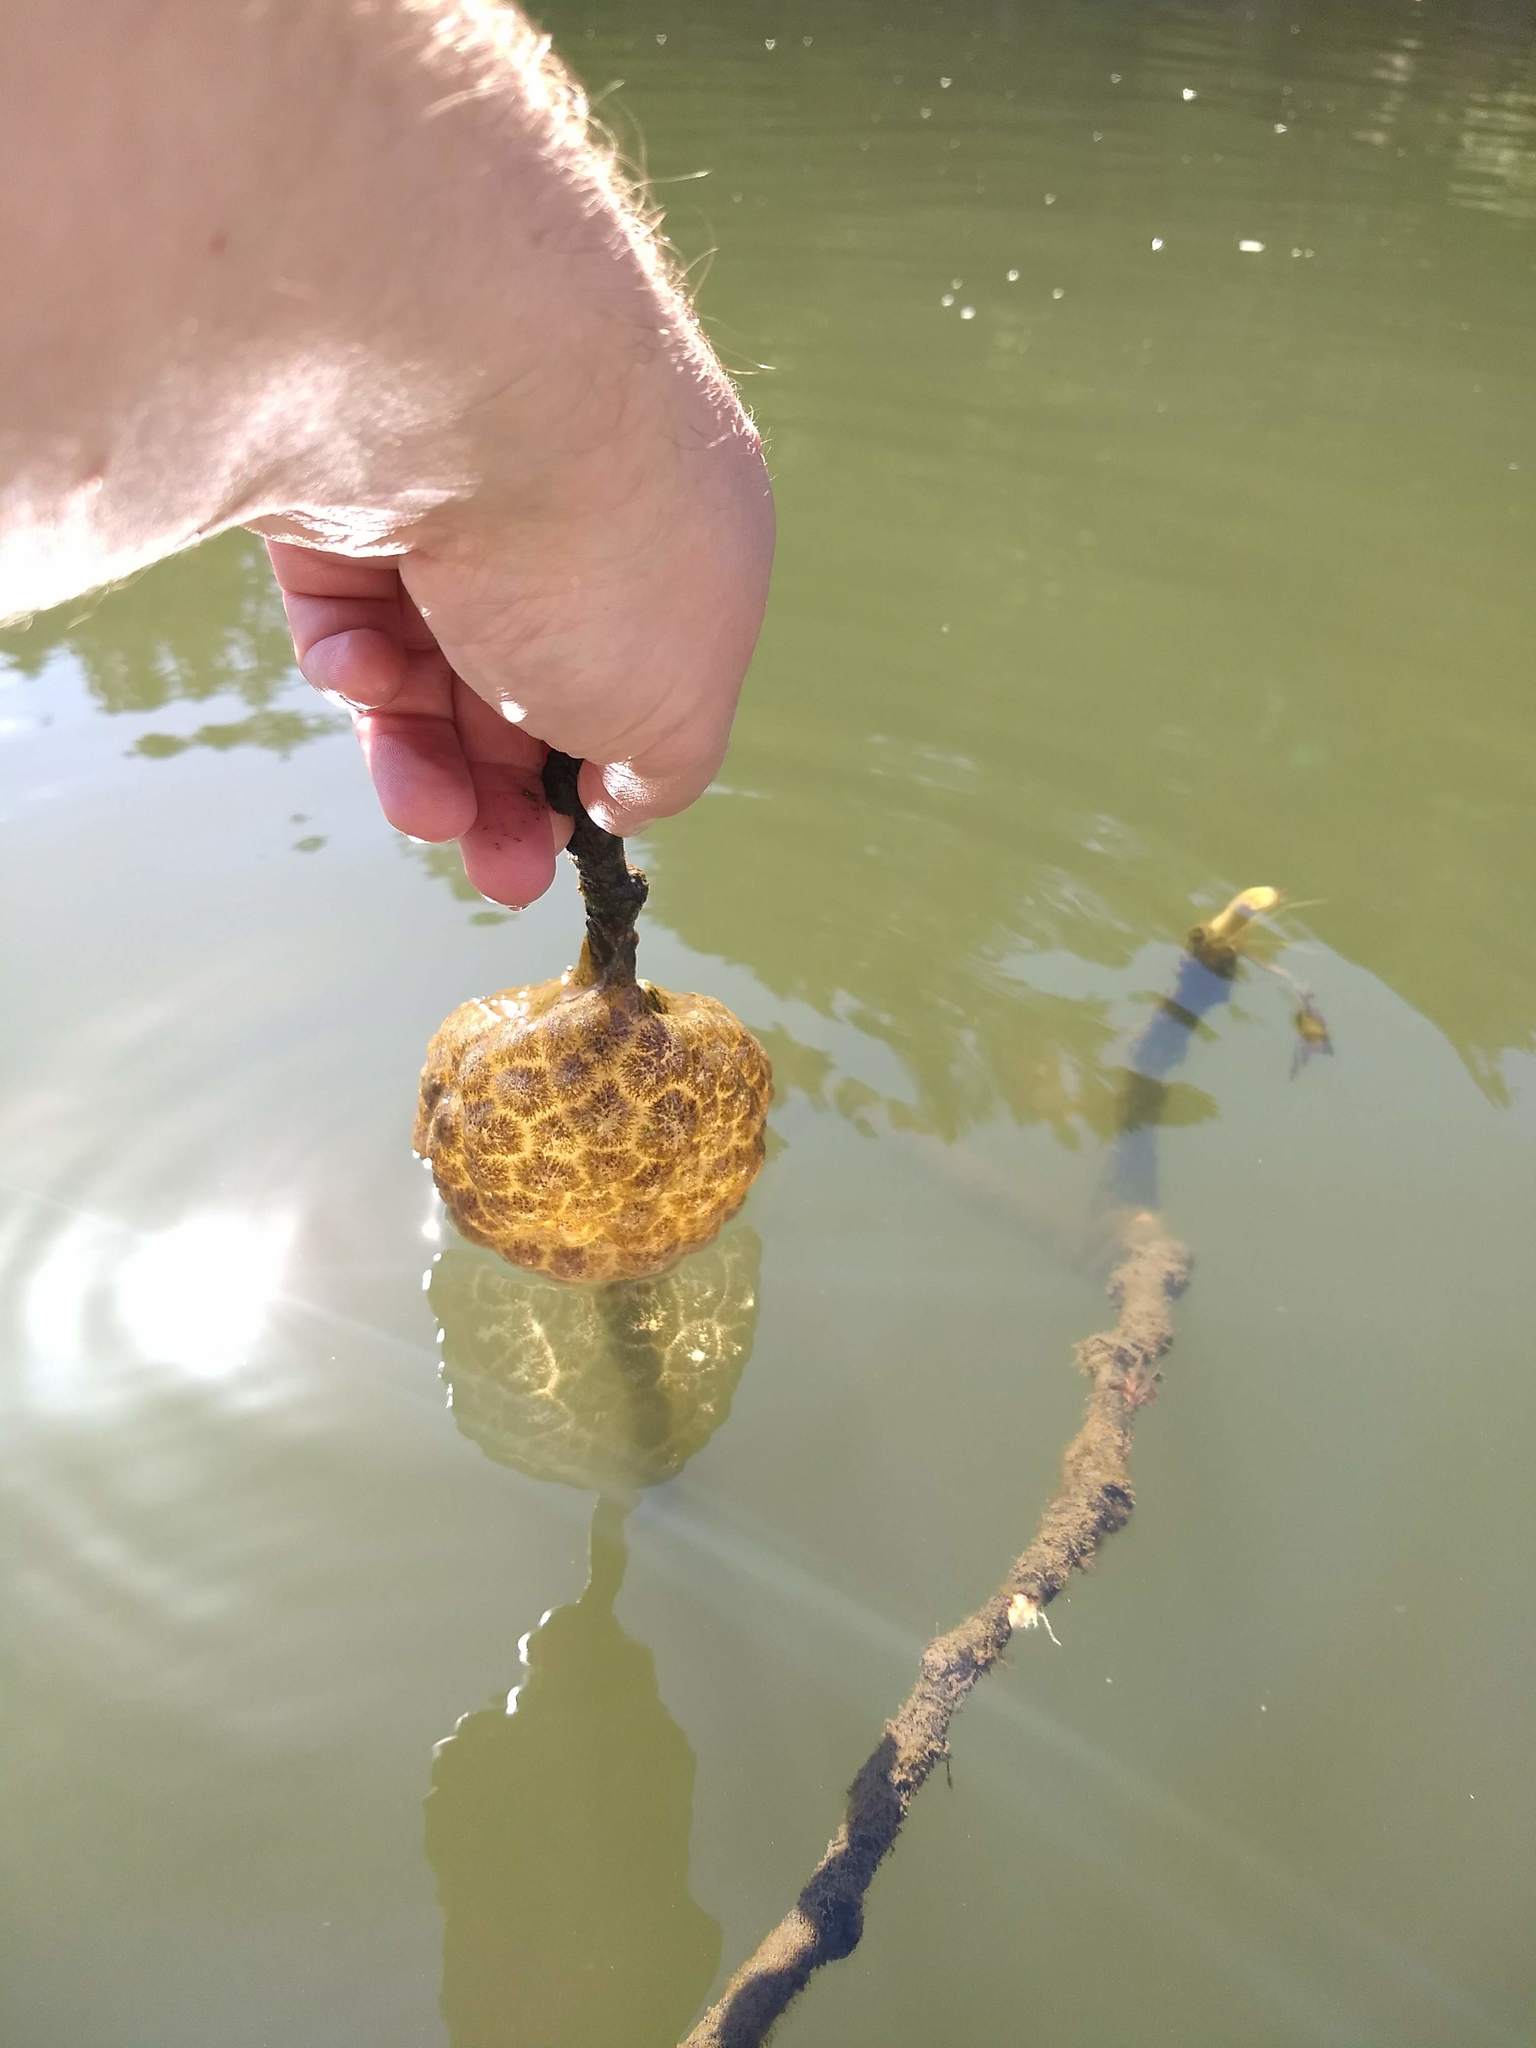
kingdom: Animalia
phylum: Bryozoa
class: Phylactolaemata
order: Plumatellida
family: Pectinatellidae
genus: Pectinatella
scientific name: Pectinatella magnifica
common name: Magnificent bryozoan
